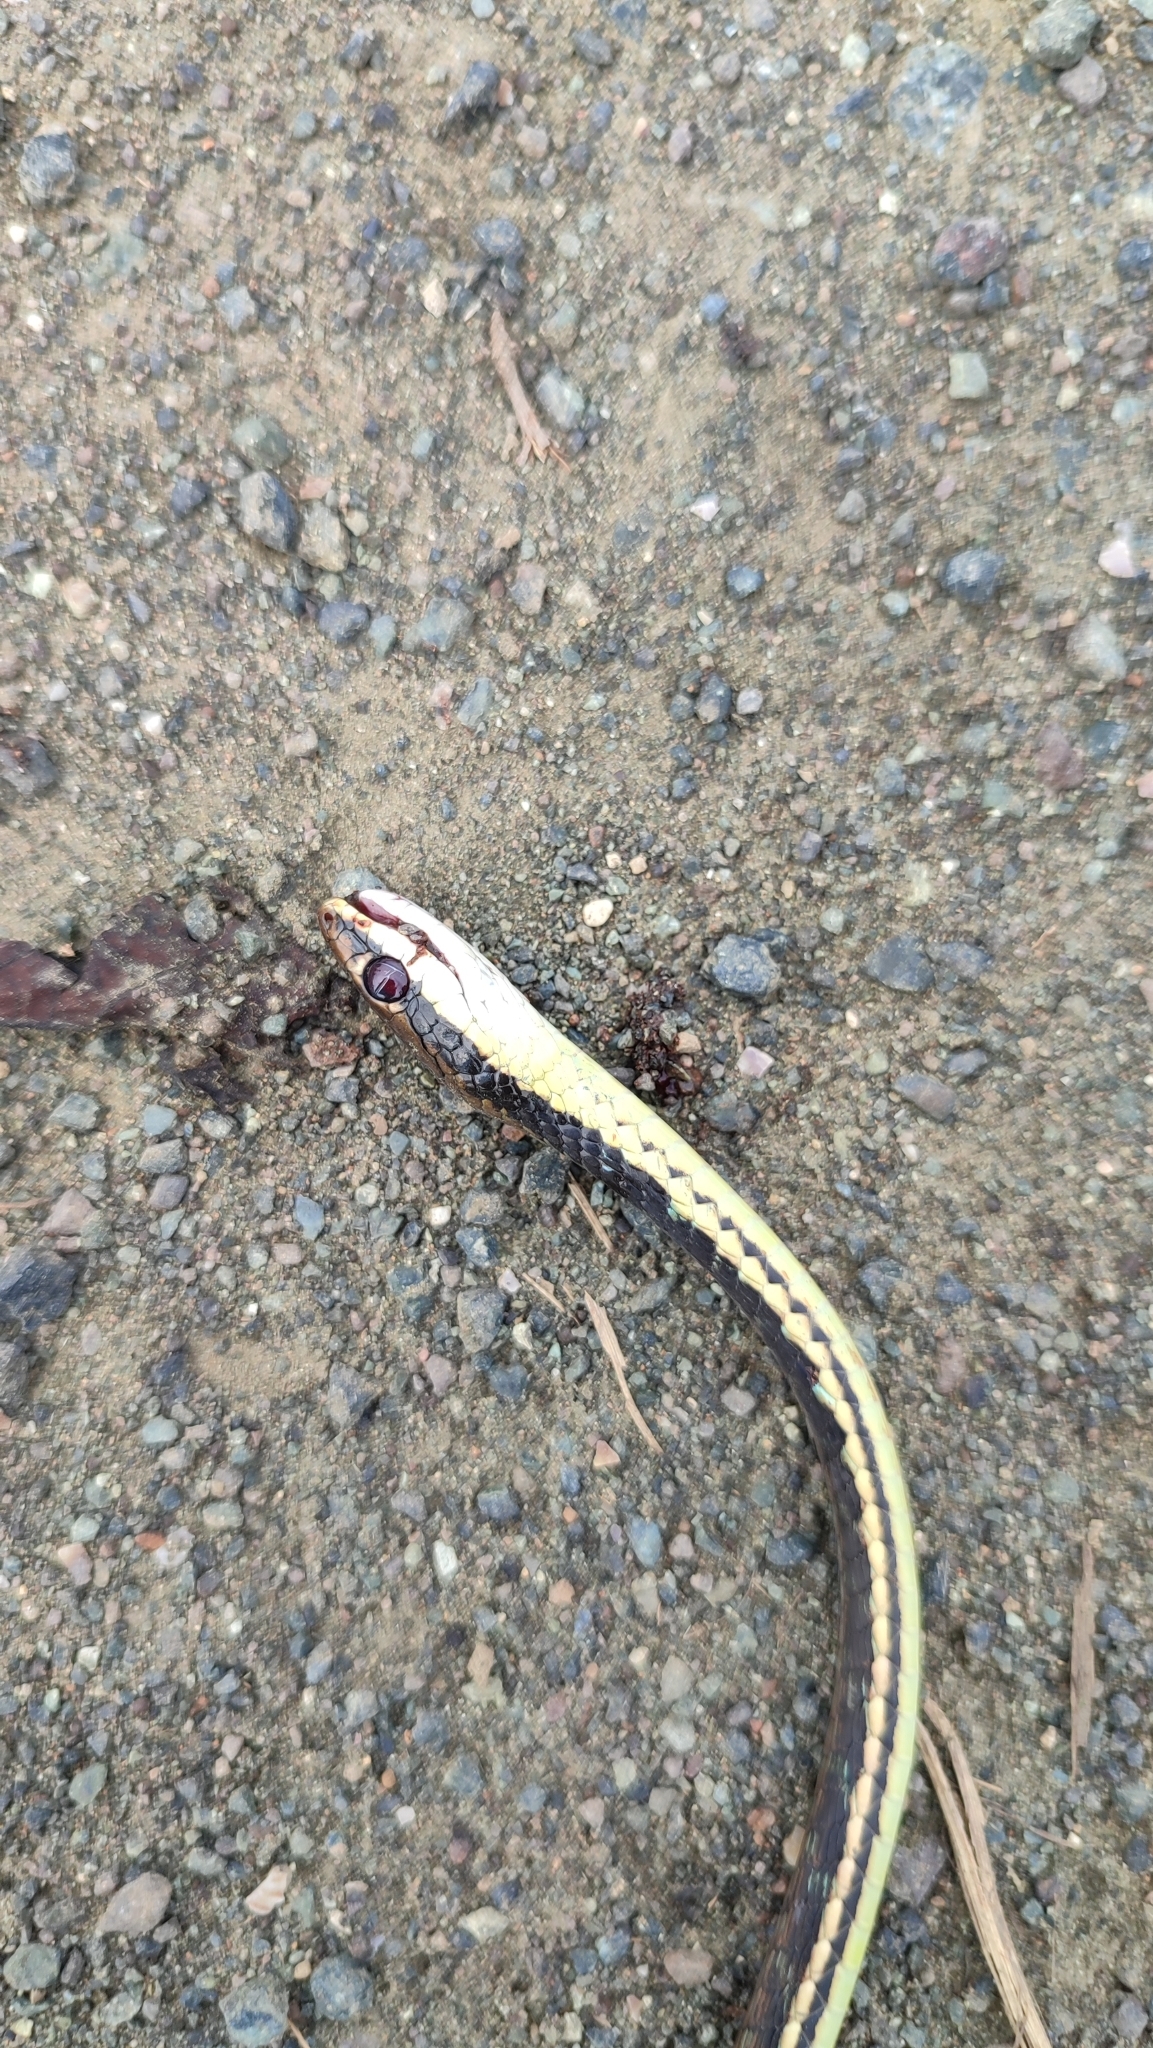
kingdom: Animalia
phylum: Chordata
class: Squamata
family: Colubridae
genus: Dendrelaphis
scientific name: Dendrelaphis pictus
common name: Indonesian bronze-back
